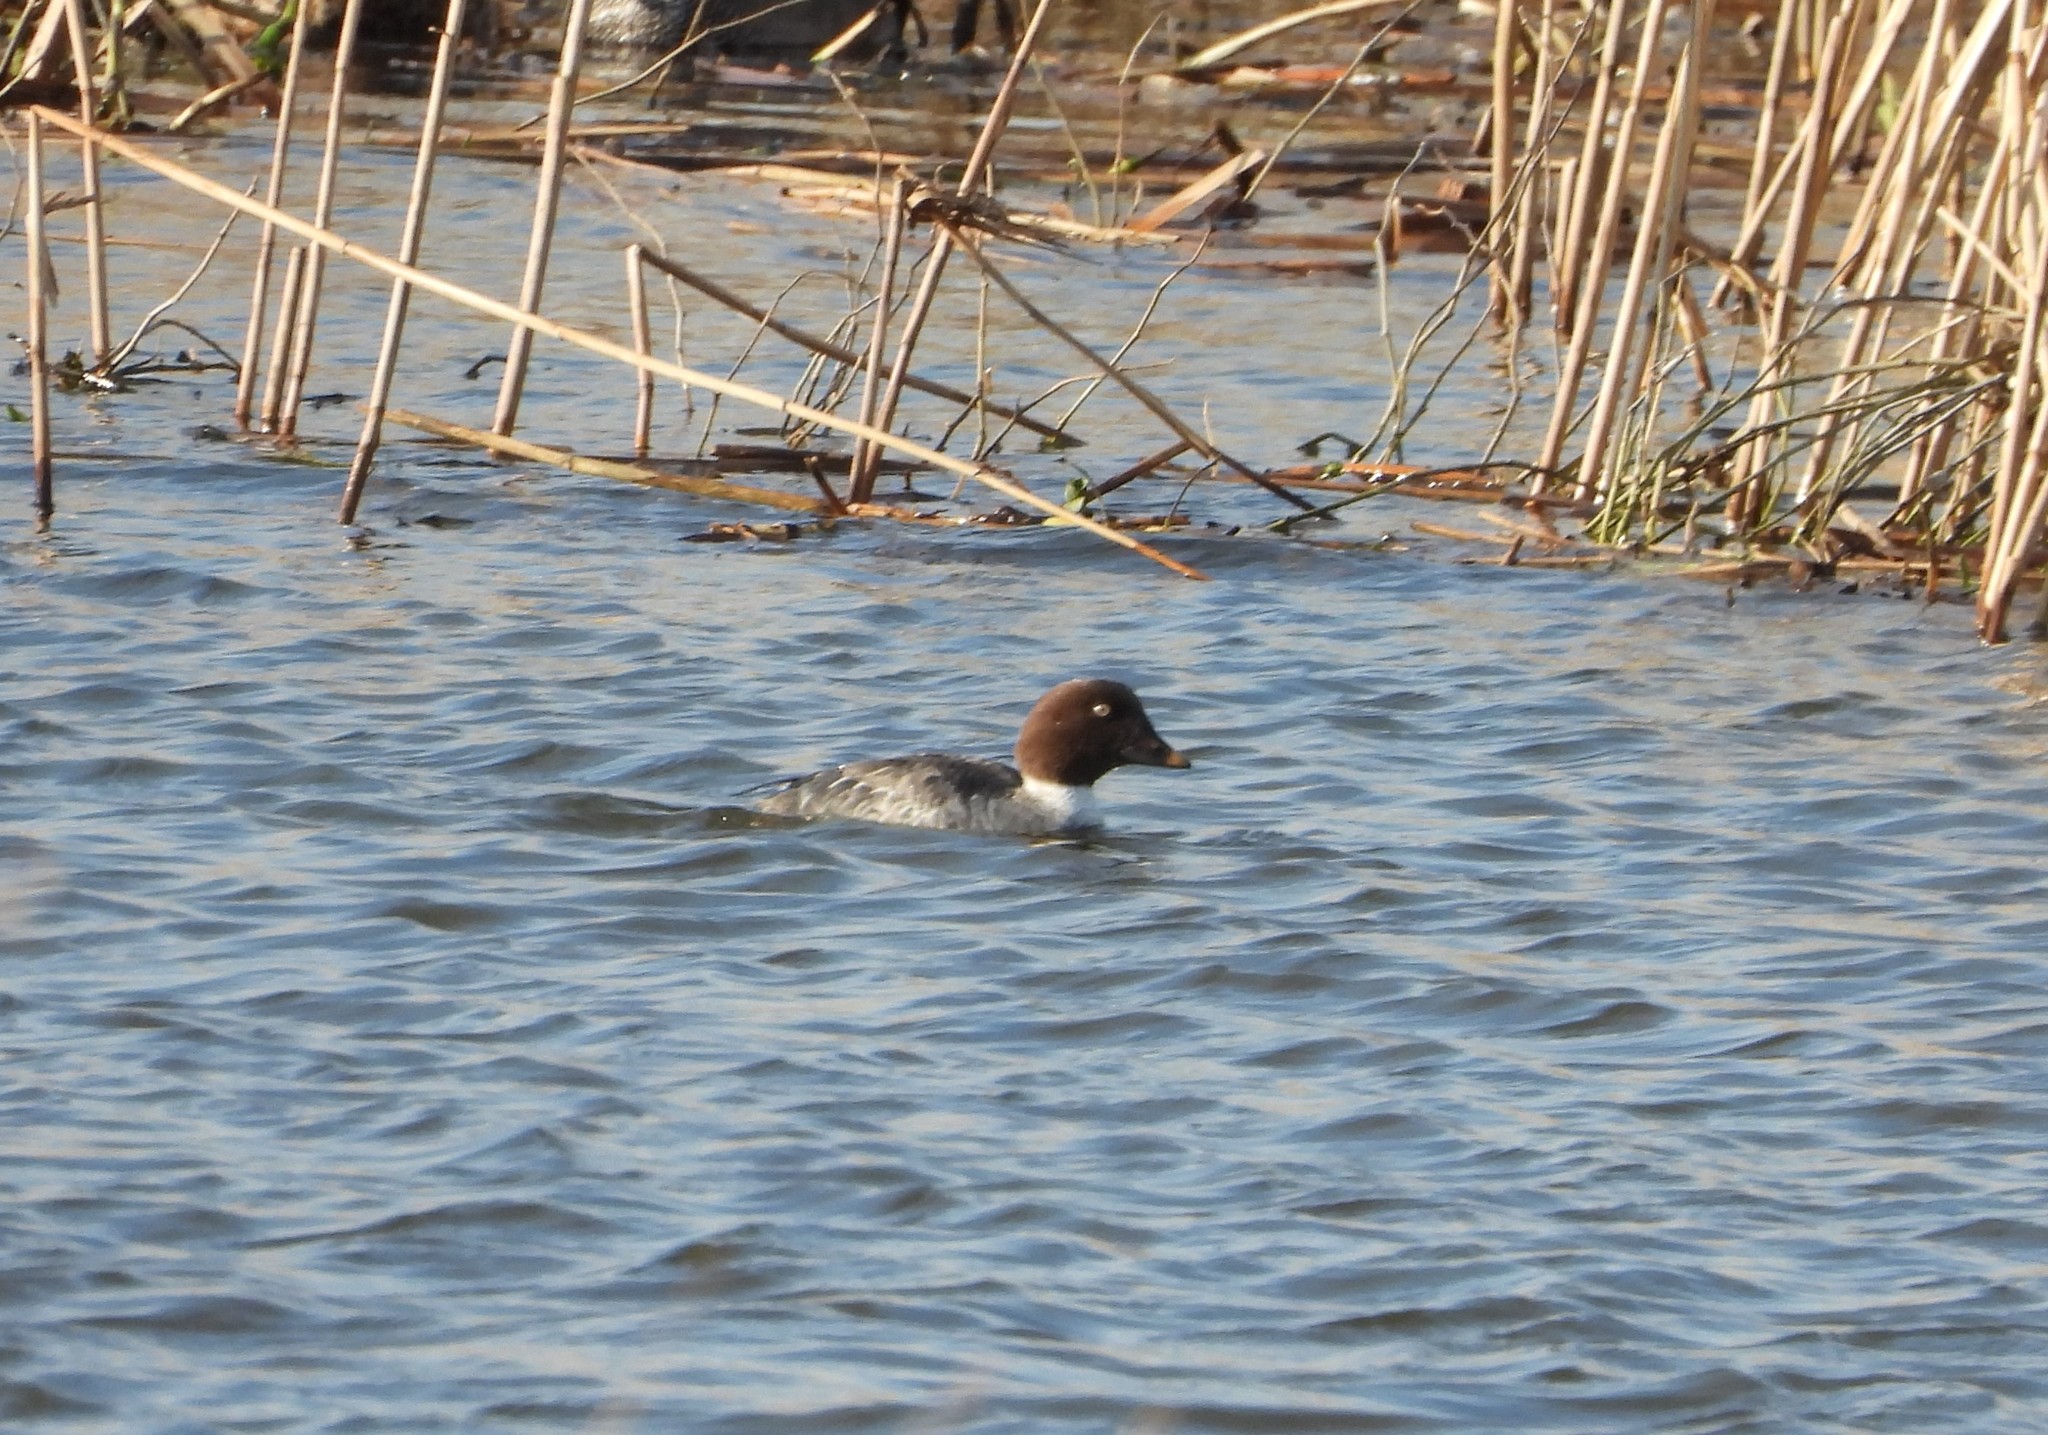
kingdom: Animalia
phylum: Chordata
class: Aves
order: Anseriformes
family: Anatidae
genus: Bucephala
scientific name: Bucephala clangula
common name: Common goldeneye
